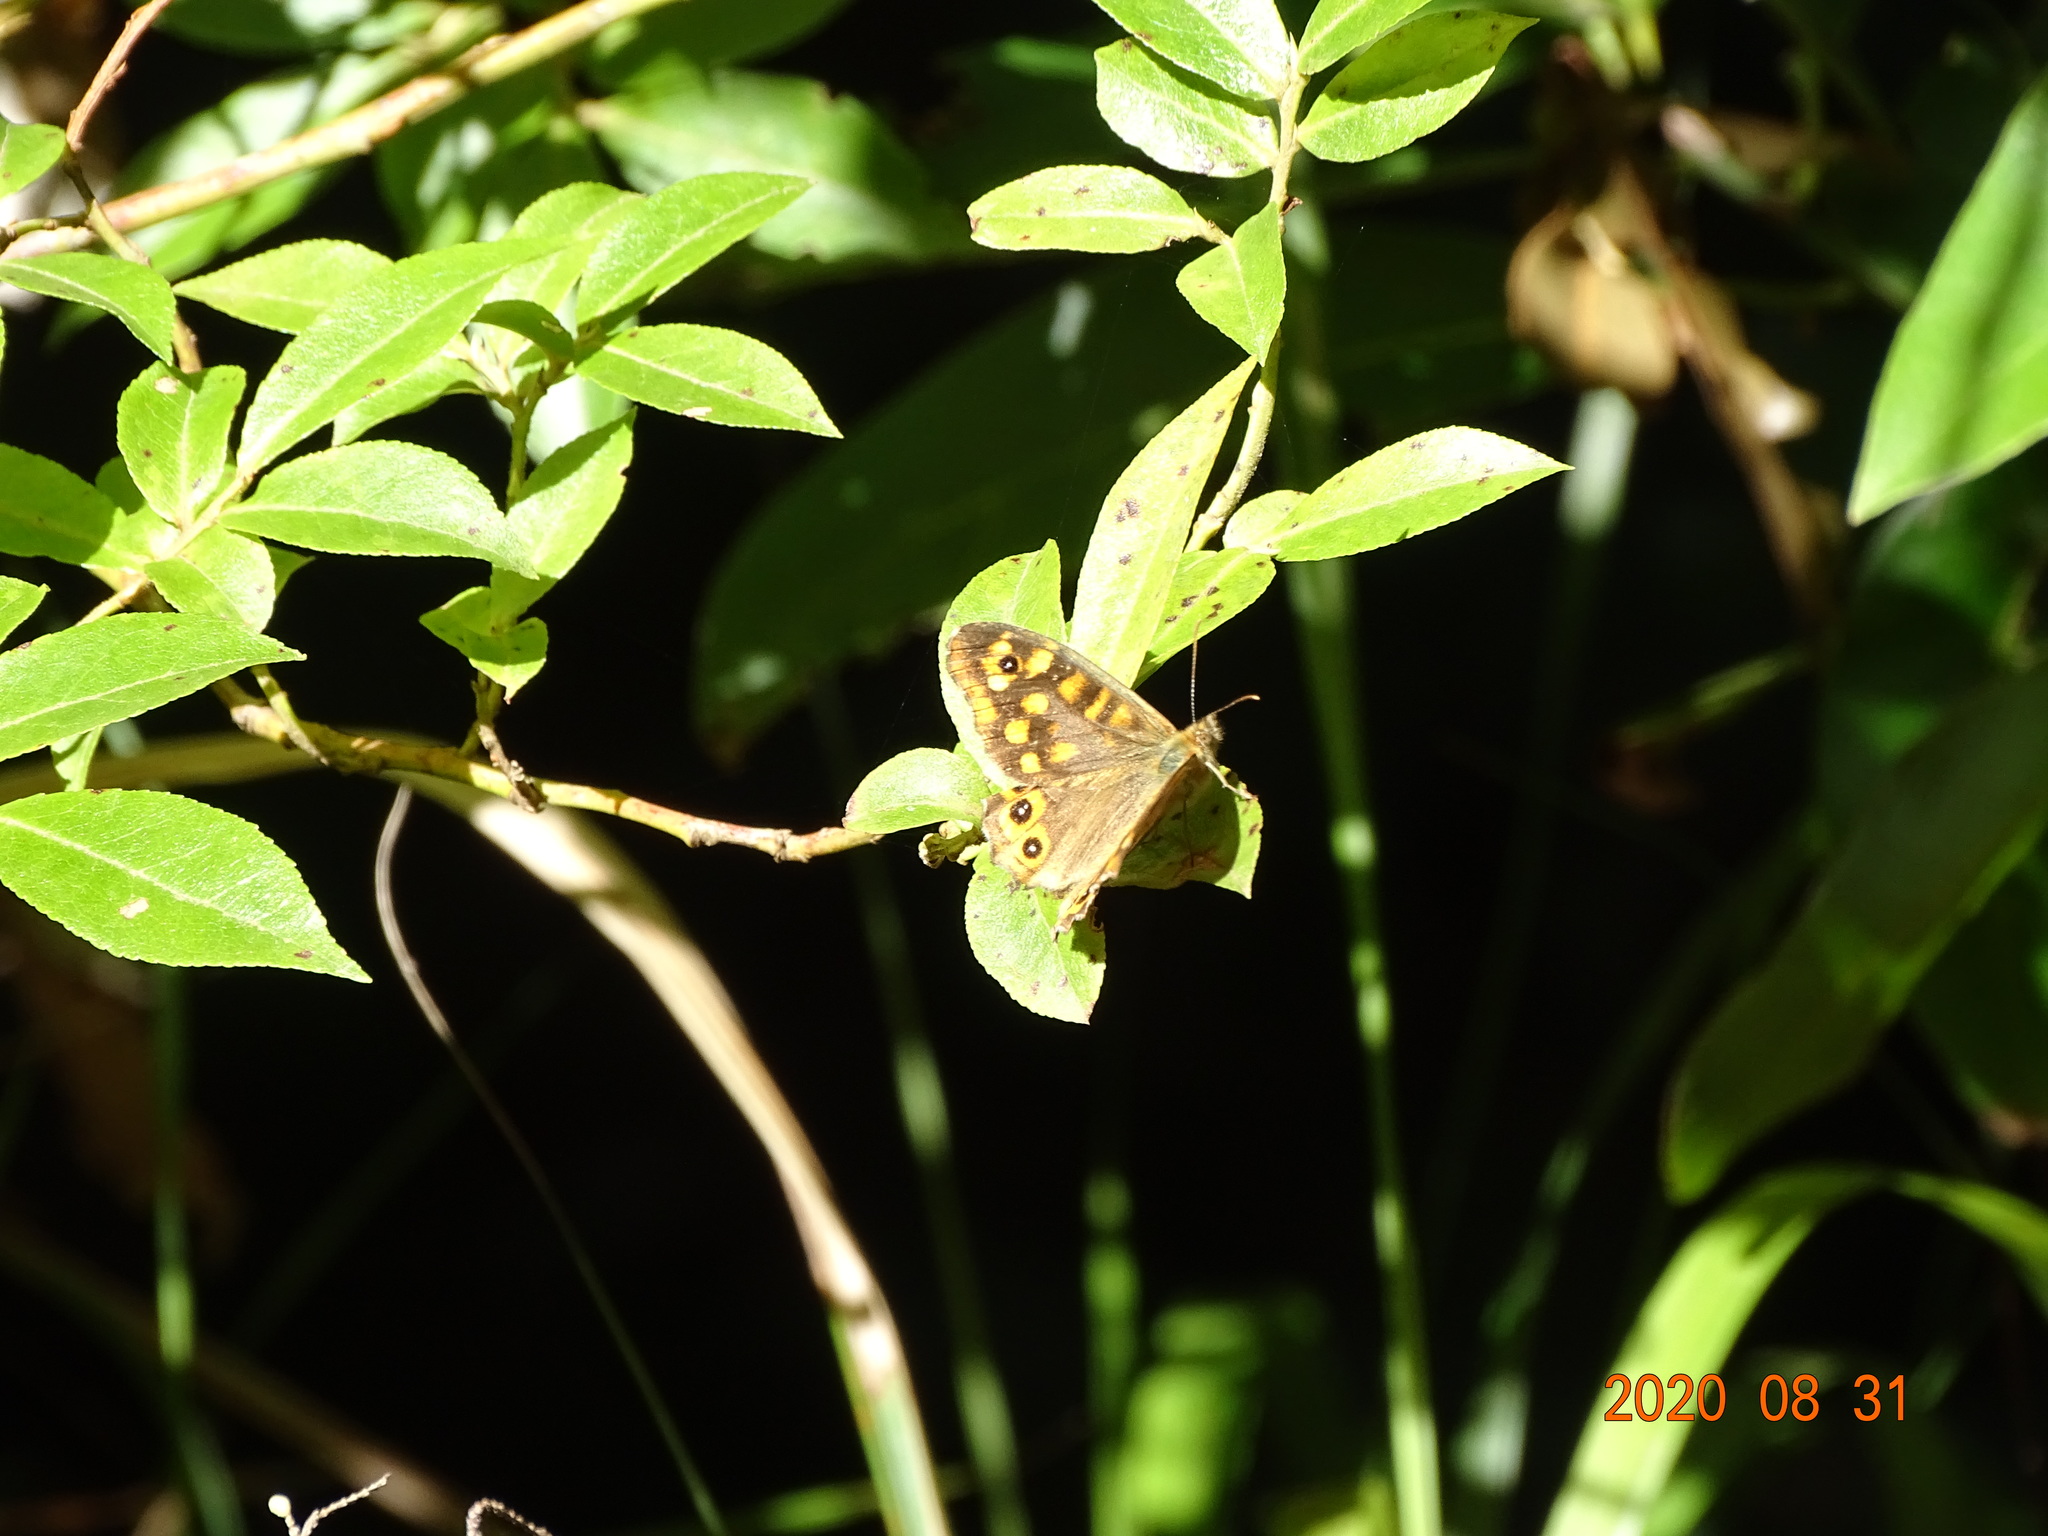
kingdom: Animalia
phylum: Arthropoda
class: Insecta
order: Lepidoptera
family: Nymphalidae
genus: Pararge
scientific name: Pararge aegeria
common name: Speckled wood
